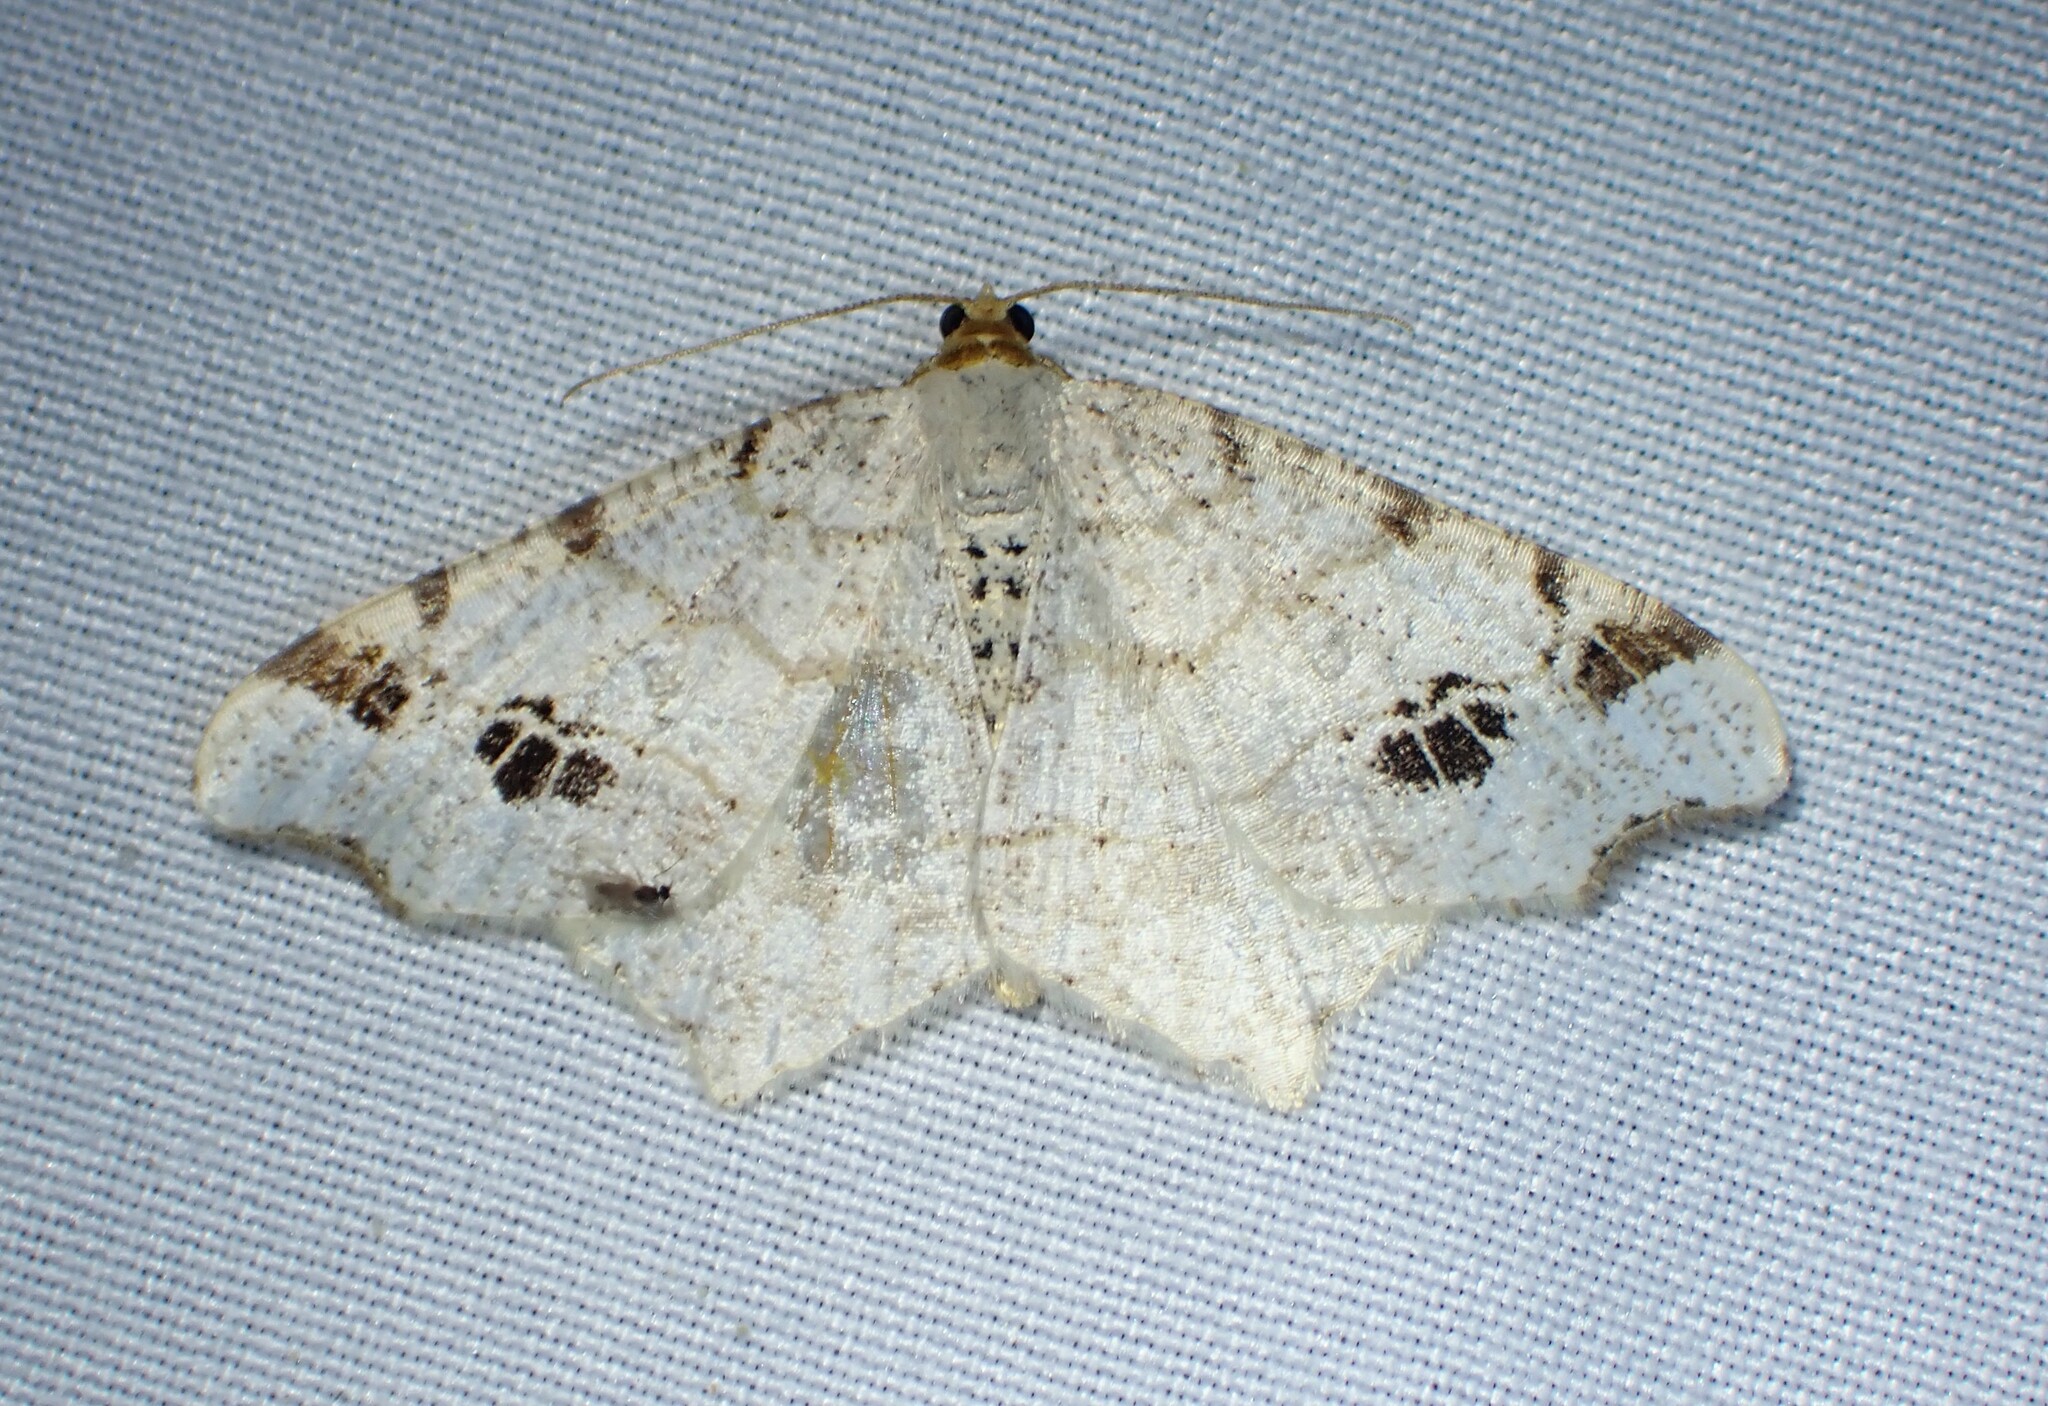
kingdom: Animalia
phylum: Arthropoda
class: Insecta
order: Lepidoptera
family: Geometridae
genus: Macaria
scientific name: Macaria ulsterata
